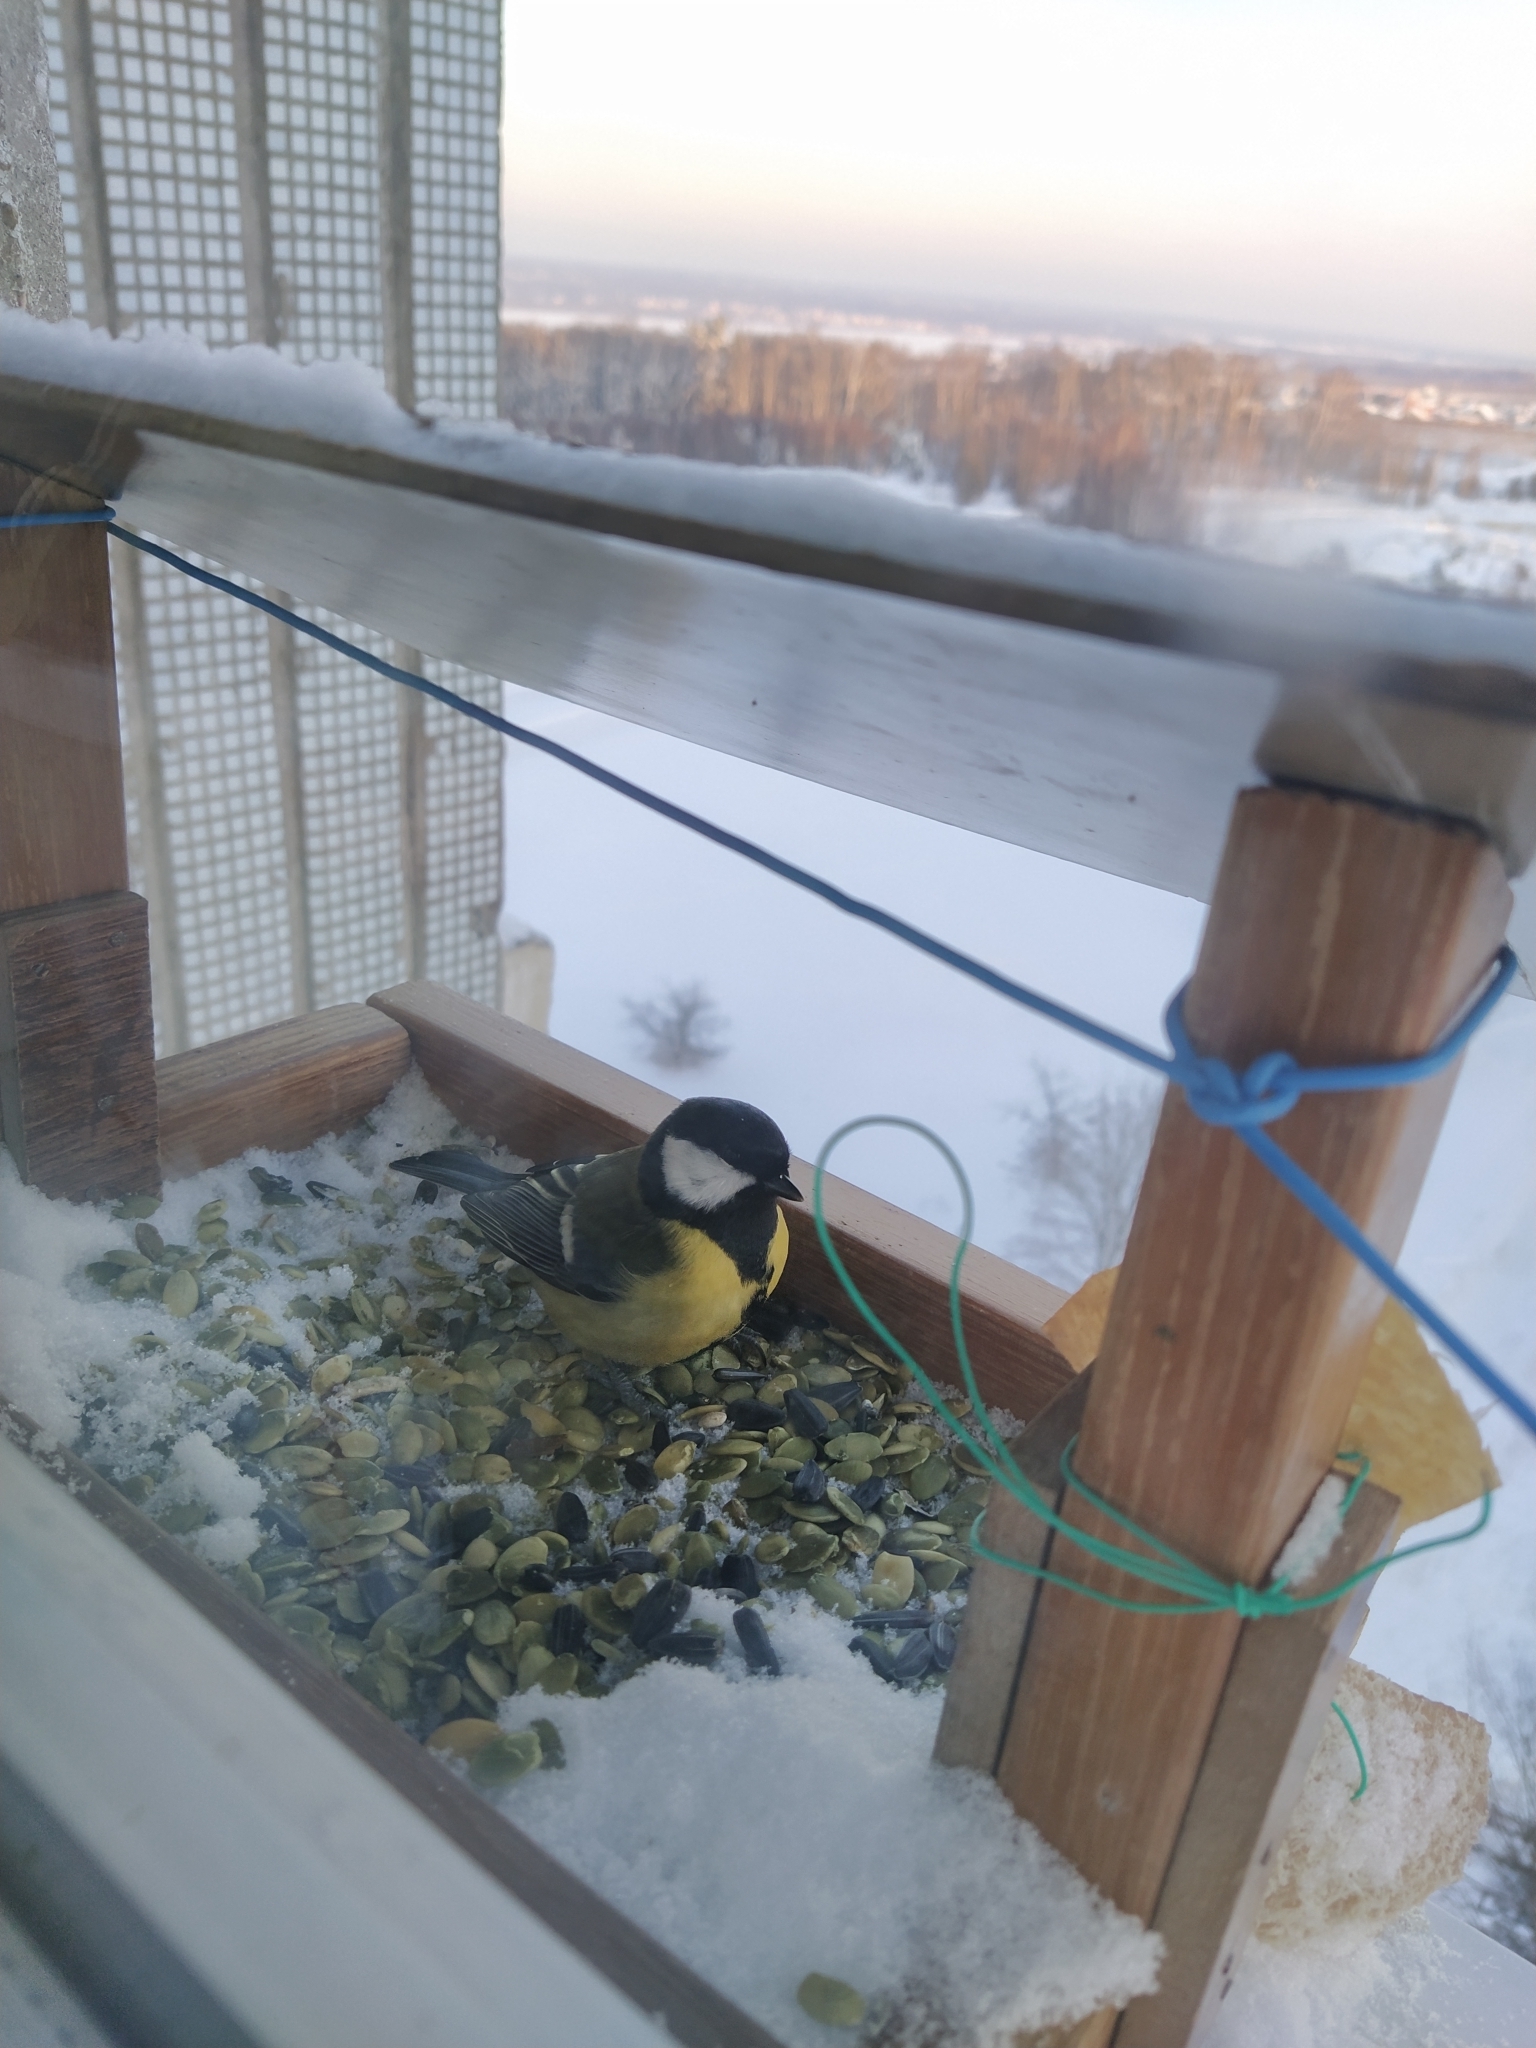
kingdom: Animalia
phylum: Chordata
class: Aves
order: Passeriformes
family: Paridae
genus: Parus
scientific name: Parus major
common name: Great tit
